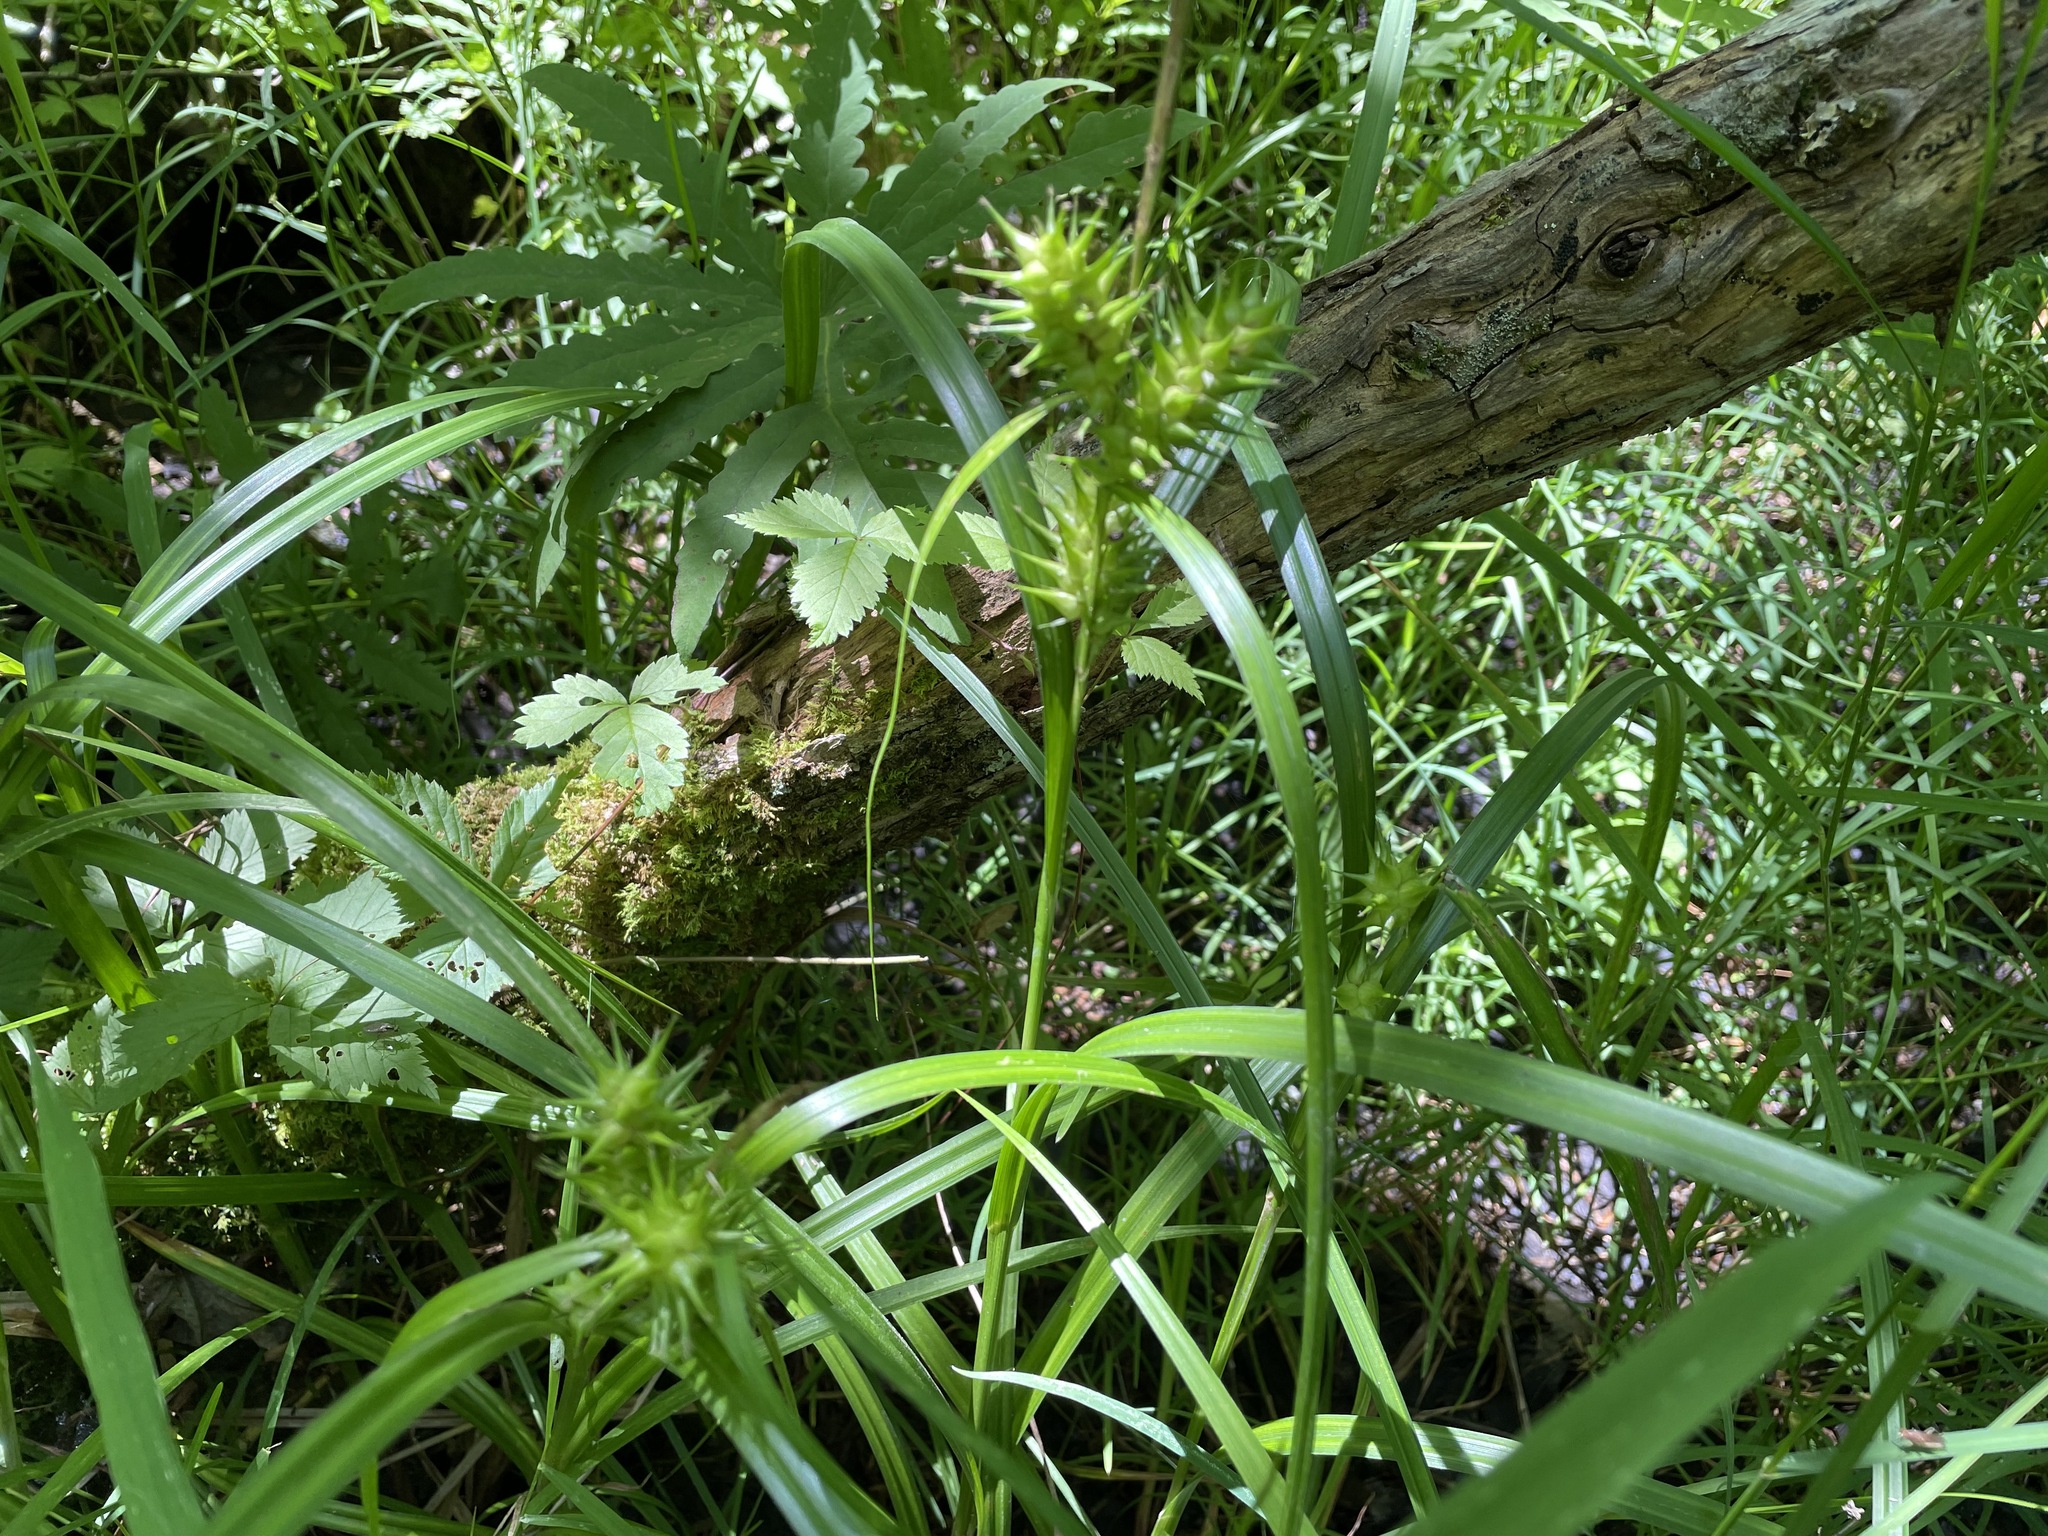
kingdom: Plantae
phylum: Tracheophyta
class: Liliopsida
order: Poales
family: Cyperaceae
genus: Carex
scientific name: Carex lupulina
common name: Hop sedge
